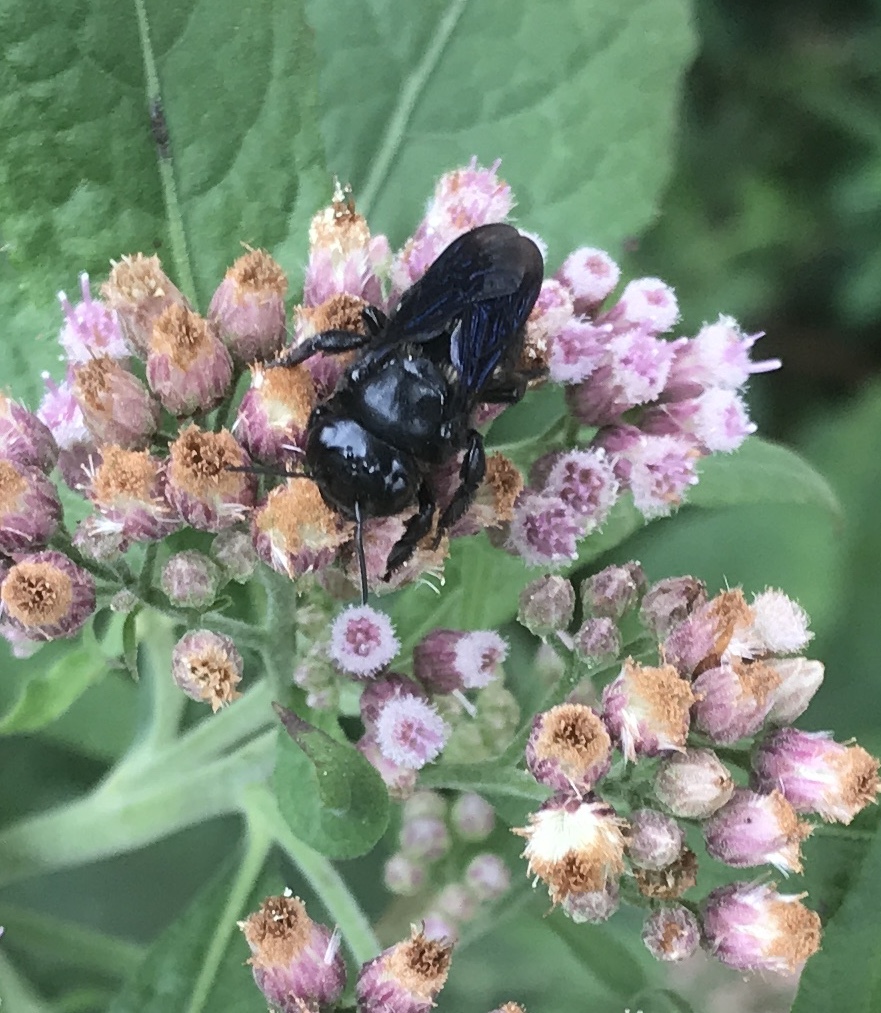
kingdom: Animalia
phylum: Arthropoda
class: Insecta
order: Hymenoptera
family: Megachilidae
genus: Megachile
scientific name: Megachile xylocopoides
